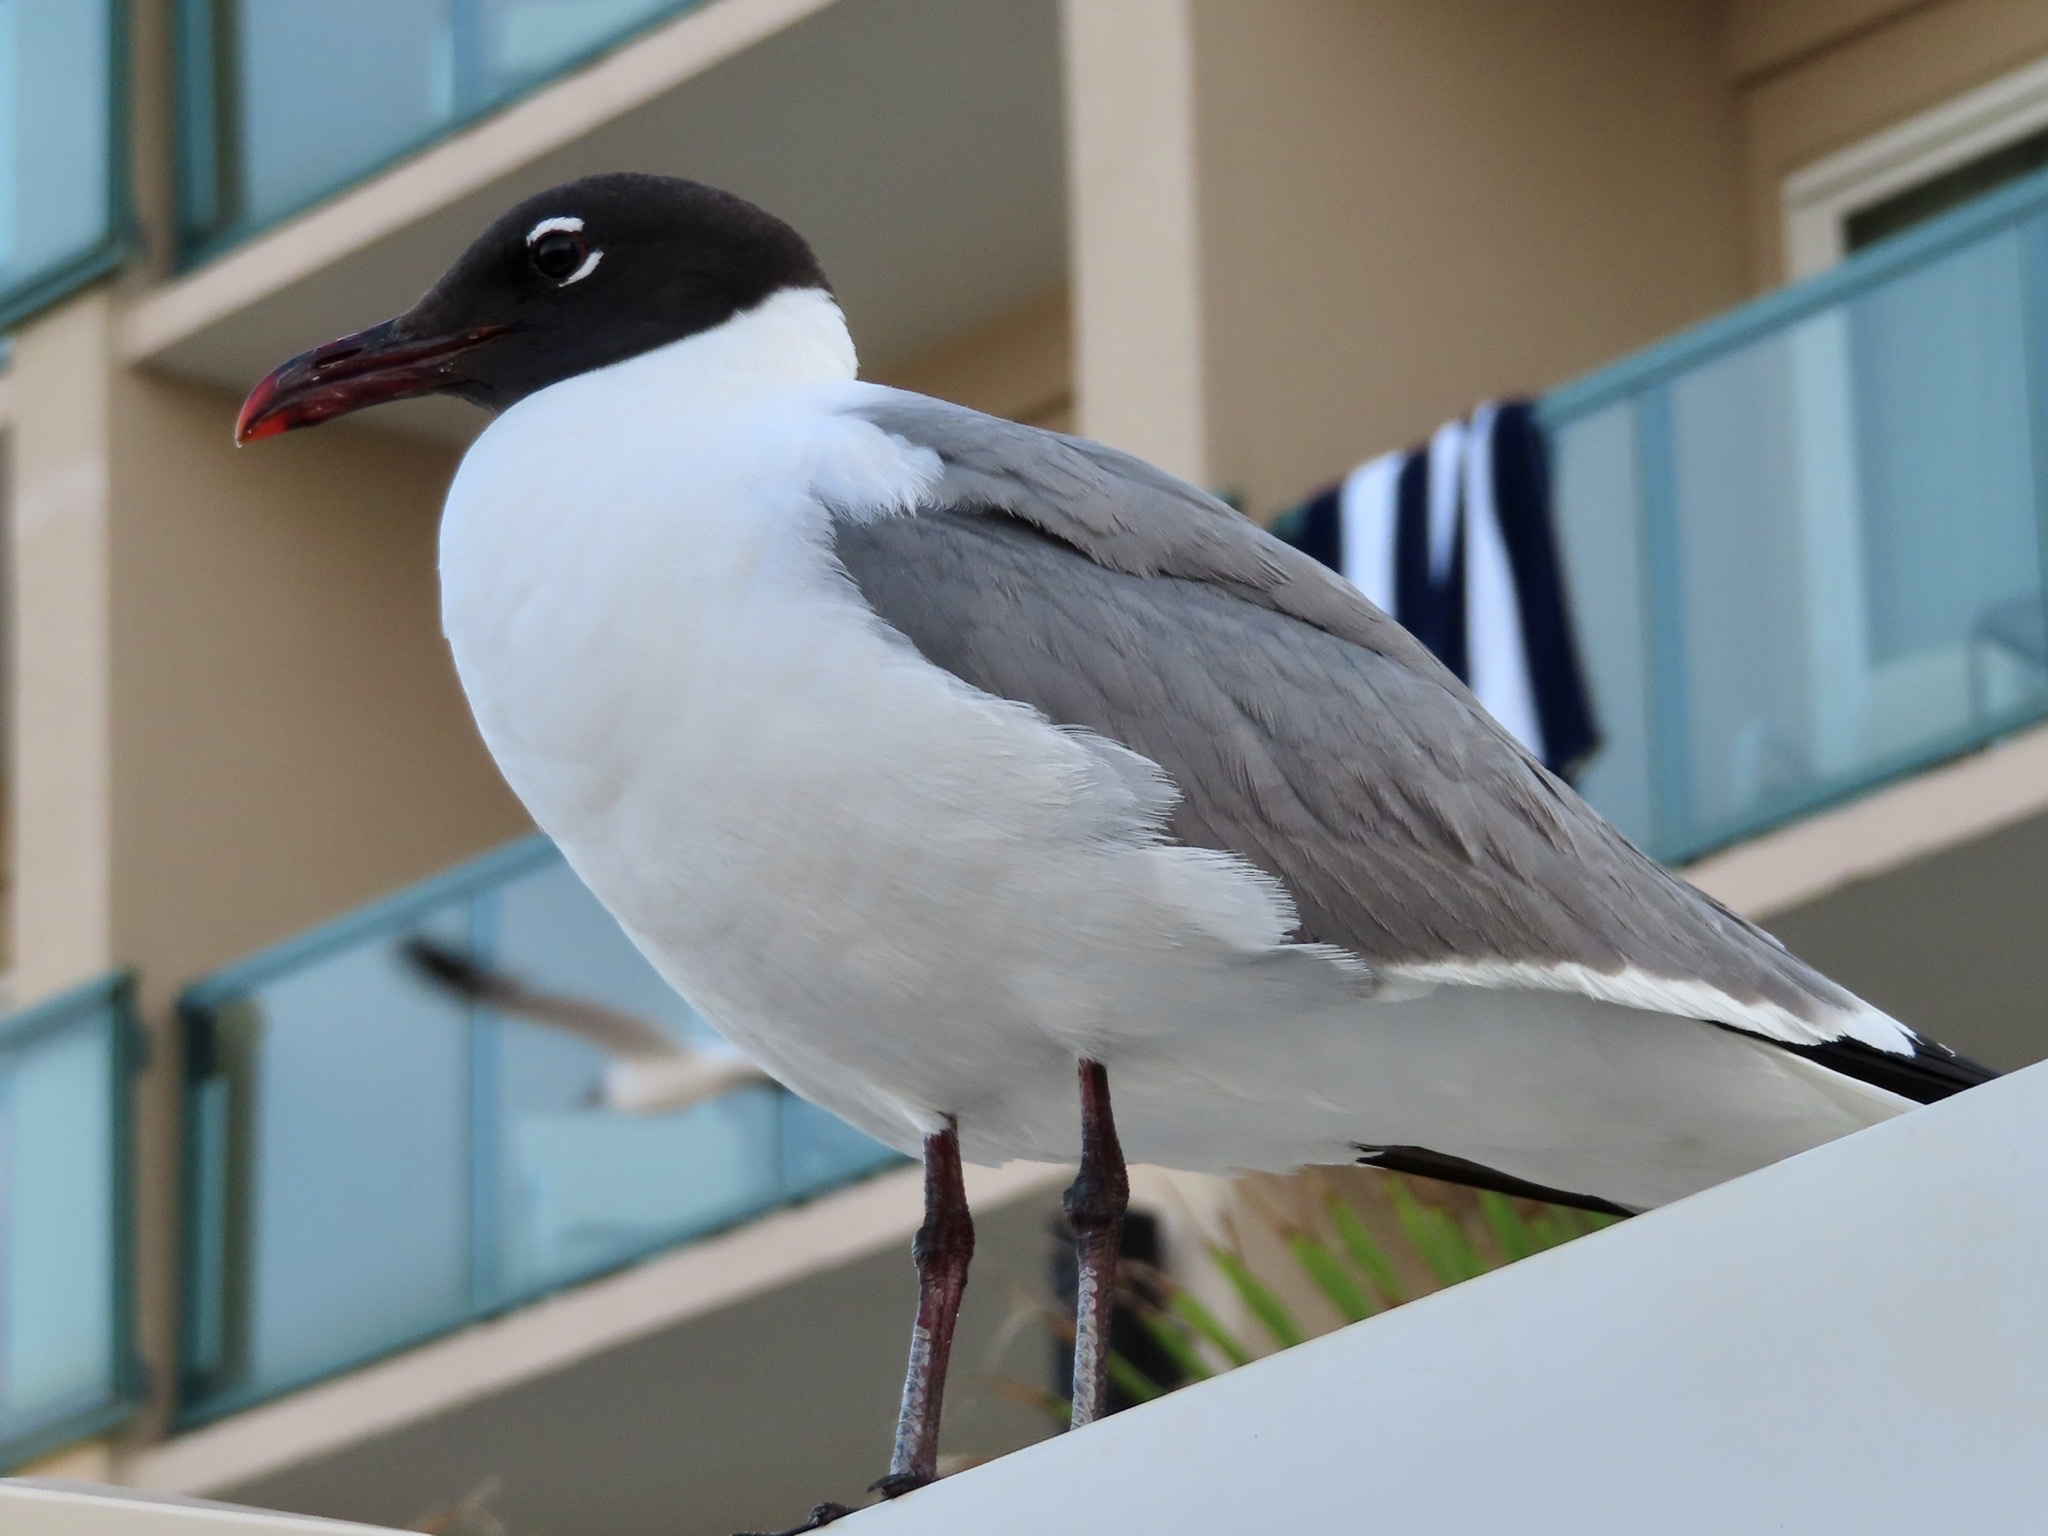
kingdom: Animalia
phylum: Chordata
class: Aves
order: Charadriiformes
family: Laridae
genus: Leucophaeus
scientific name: Leucophaeus atricilla
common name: Laughing gull
